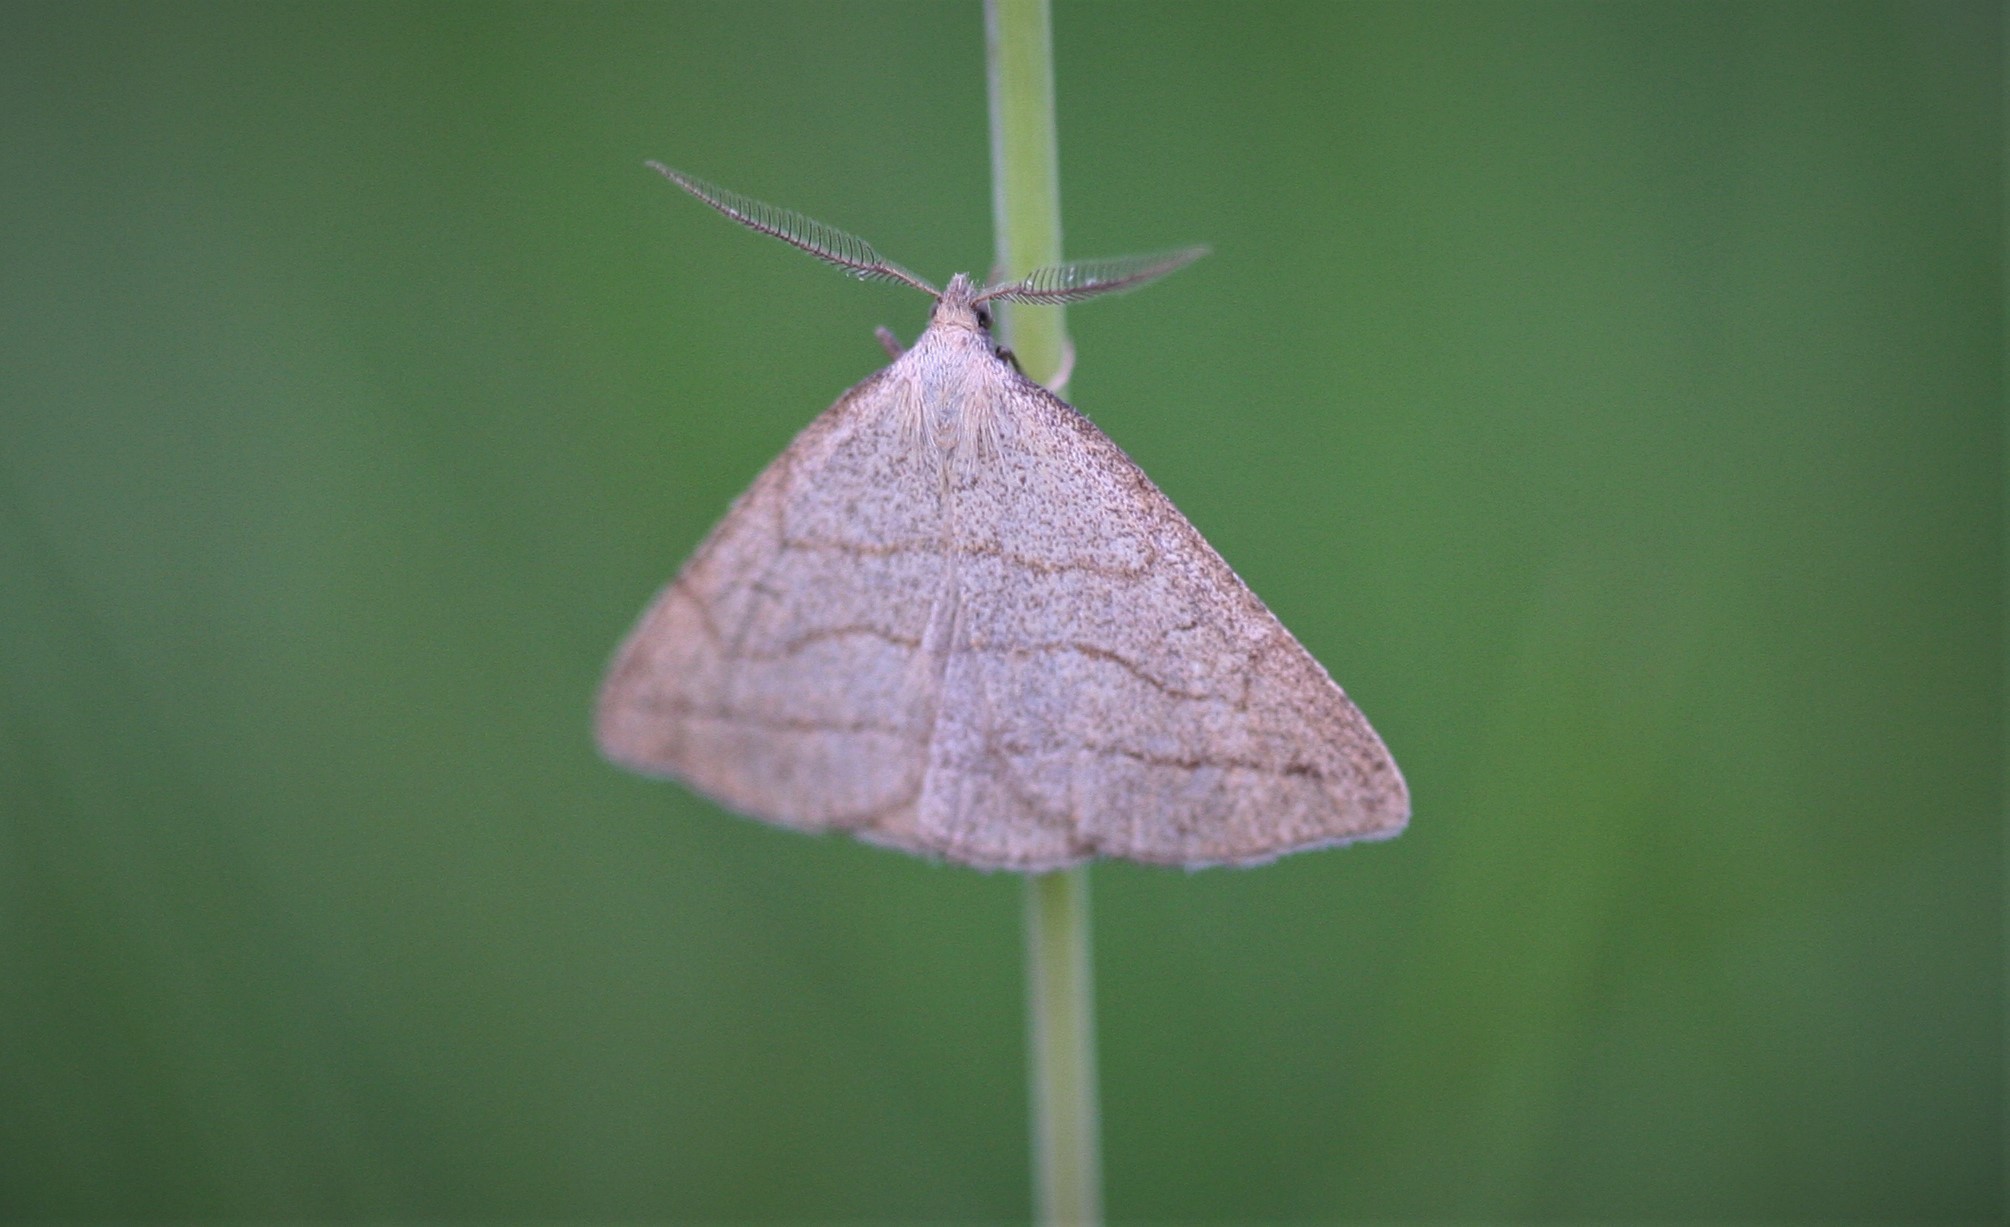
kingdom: Animalia
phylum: Arthropoda
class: Insecta
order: Lepidoptera
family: Erebidae
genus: Polypogon
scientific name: Polypogon tentacularia
